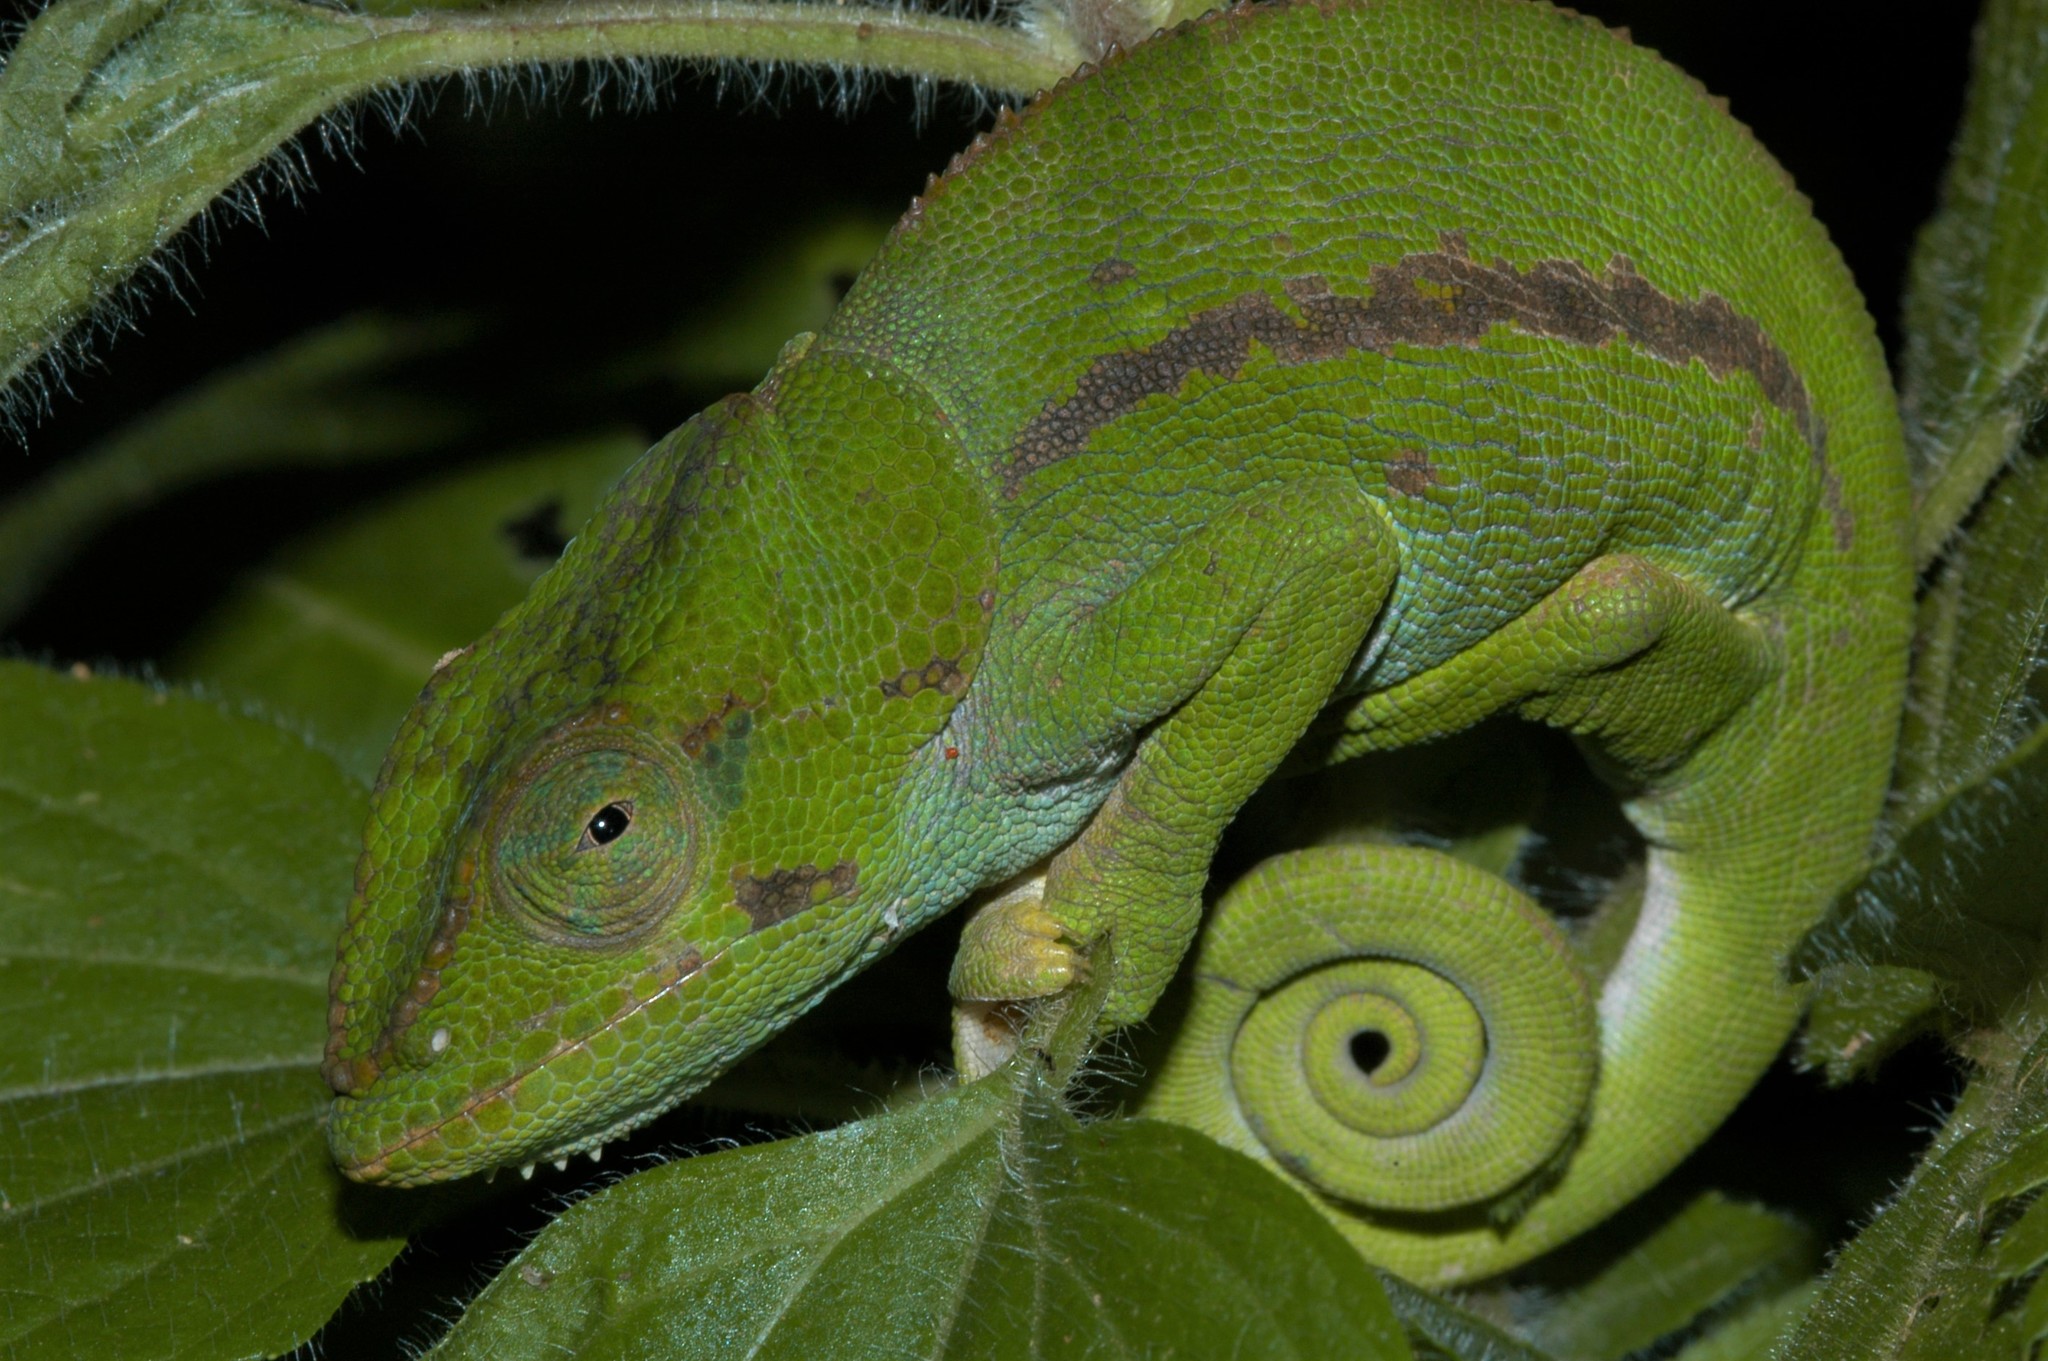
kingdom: Animalia
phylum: Chordata
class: Squamata
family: Chamaeleonidae
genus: Calumma
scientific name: Calumma amber
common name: Amber mountain chameleon
